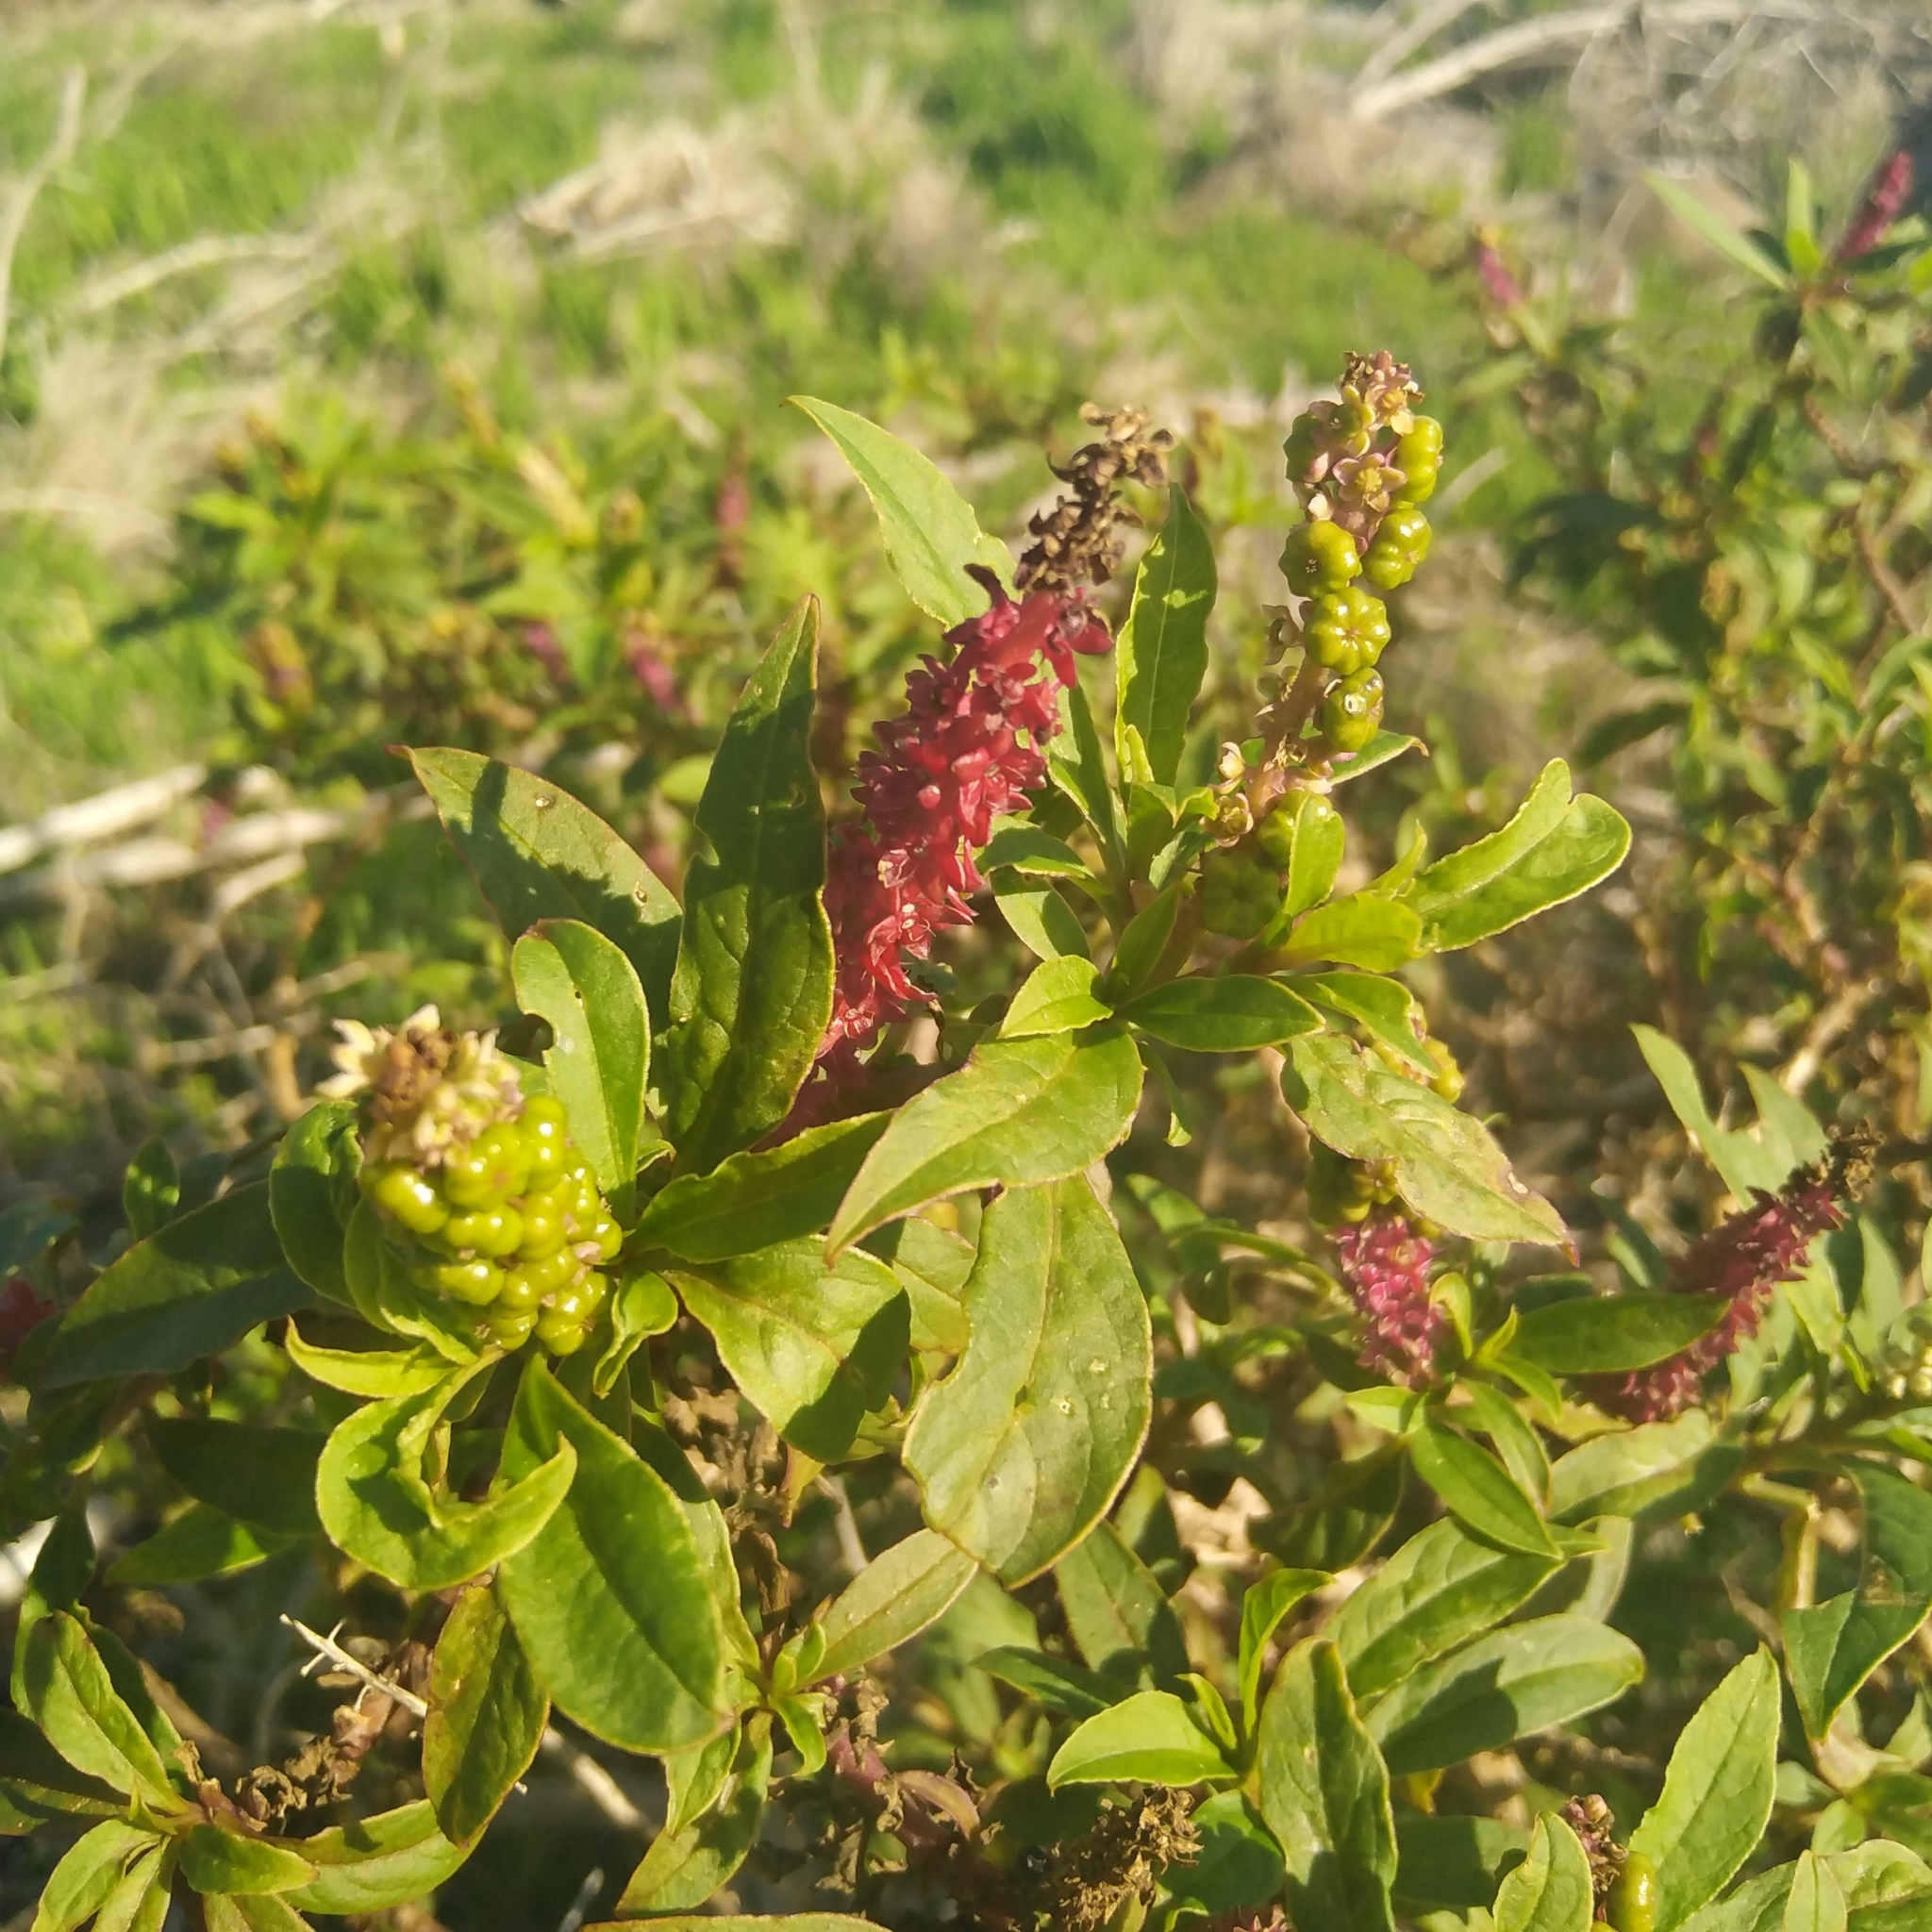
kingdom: Plantae
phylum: Tracheophyta
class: Magnoliopsida
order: Caryophyllales
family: Phytolaccaceae
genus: Phytolacca
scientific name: Phytolacca icosandra
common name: Button pokeweed
